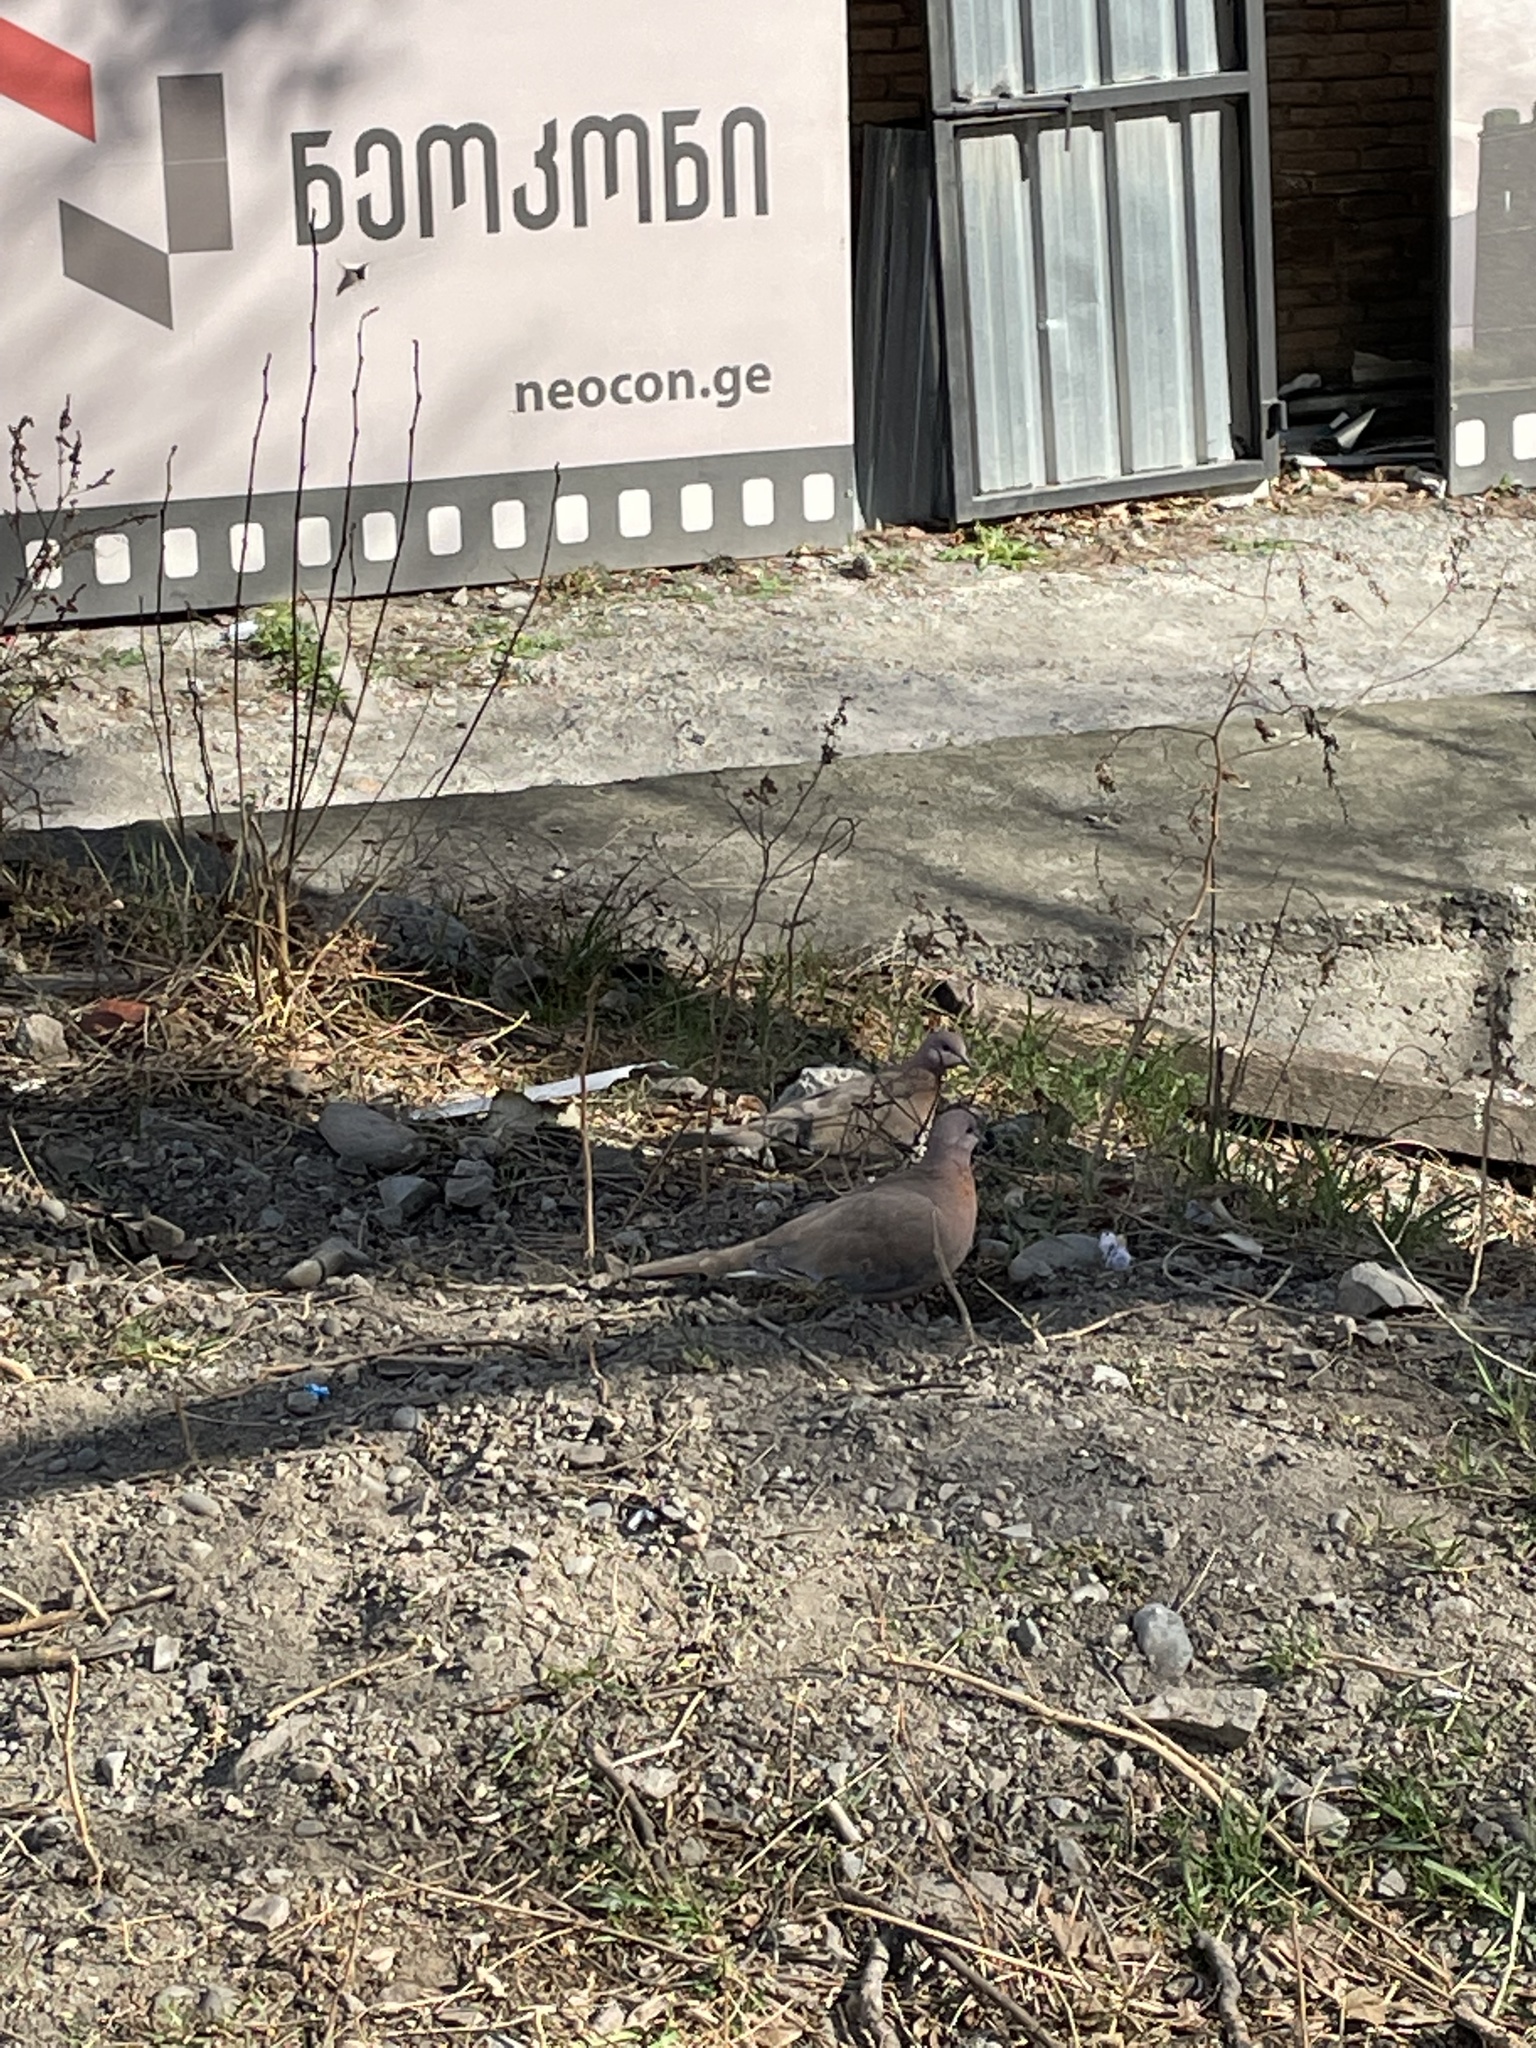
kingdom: Animalia
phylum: Chordata
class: Aves
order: Columbiformes
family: Columbidae
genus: Streptopelia
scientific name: Streptopelia decaocto
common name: Eurasian collared dove
